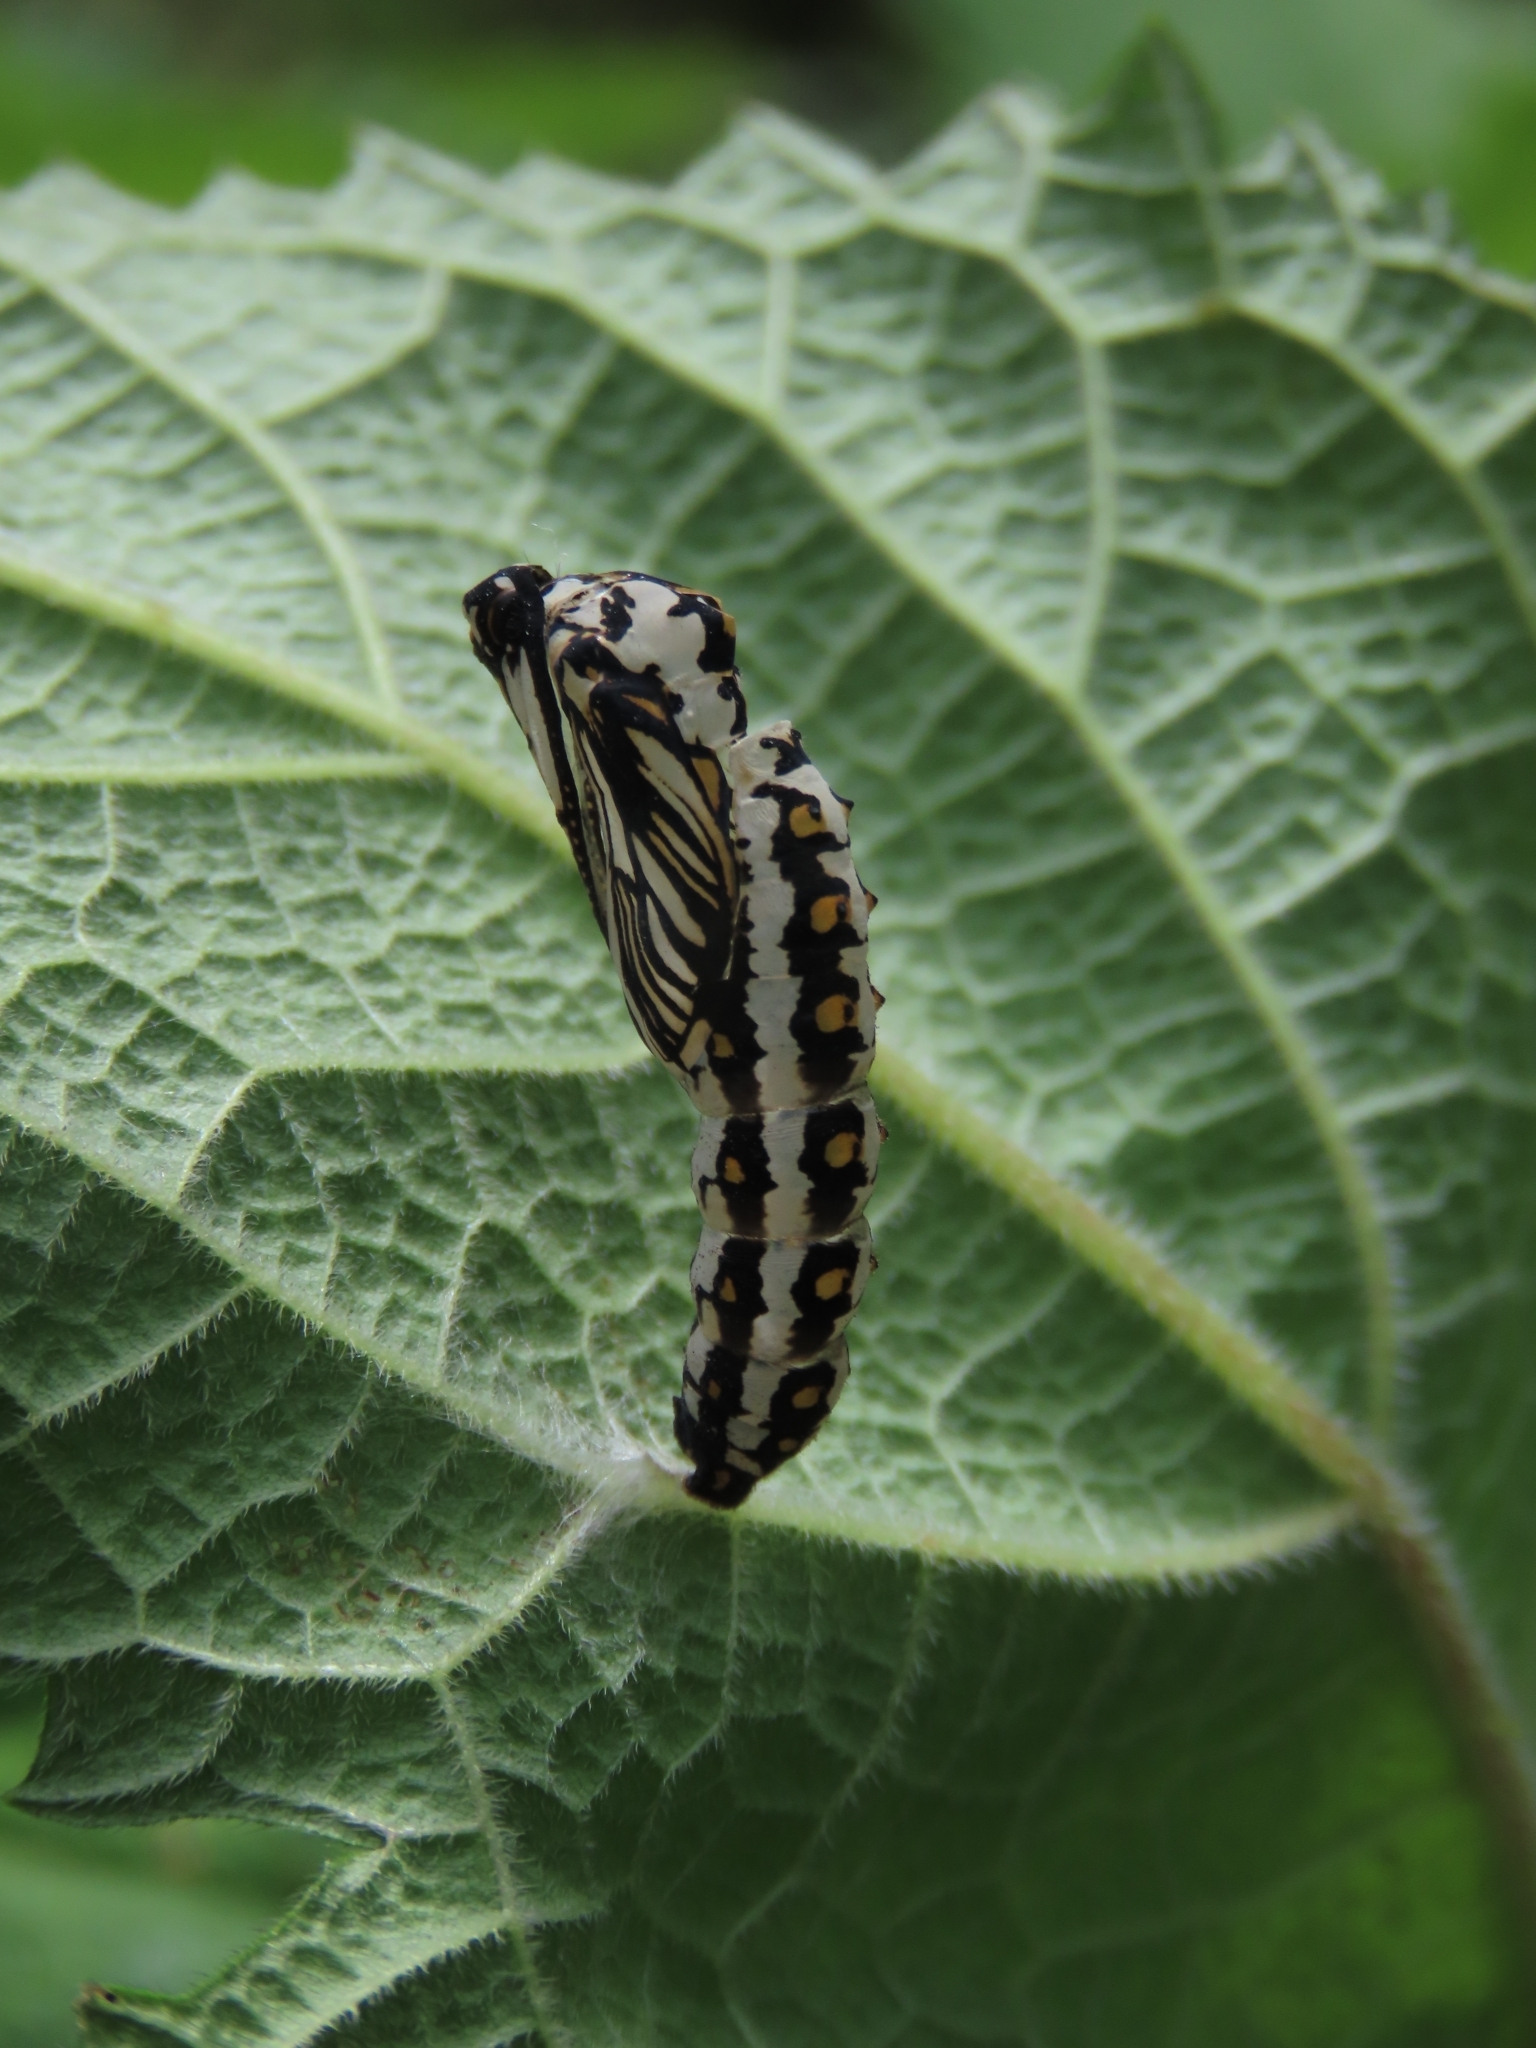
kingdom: Animalia
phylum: Arthropoda
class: Insecta
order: Lepidoptera
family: Nymphalidae
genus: Acraea
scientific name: Acraea Telchinia issoria
